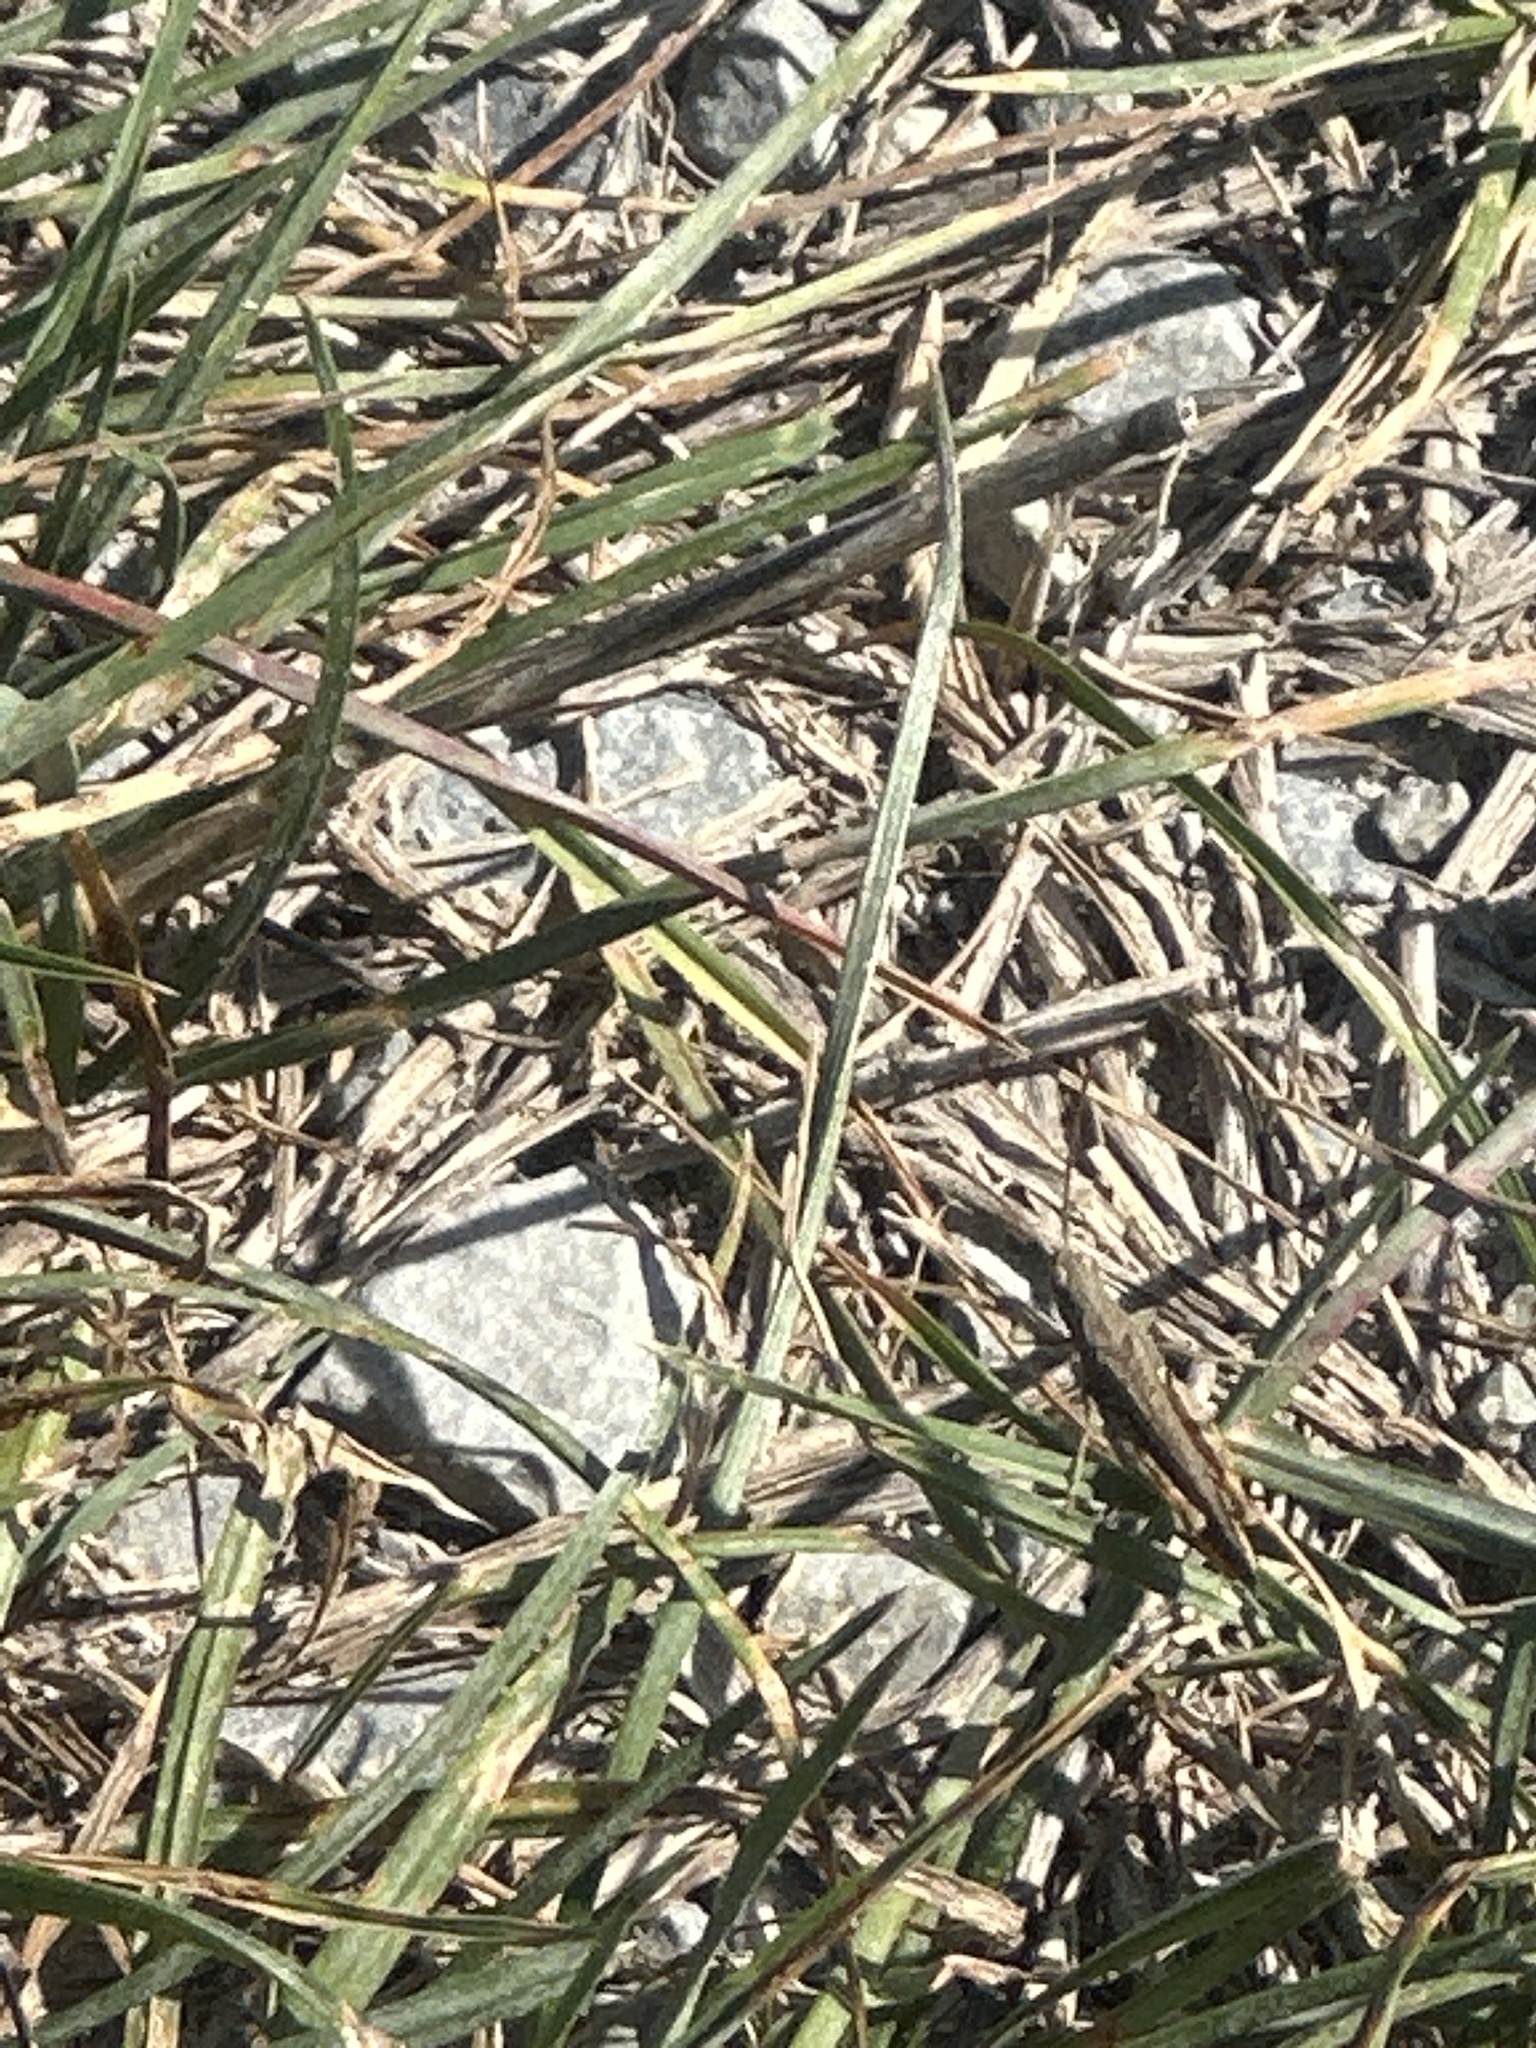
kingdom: Animalia
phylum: Arthropoda
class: Insecta
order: Orthoptera
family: Acrididae
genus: Chorthippus
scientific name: Chorthippus brunneus
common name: Field grasshopper
